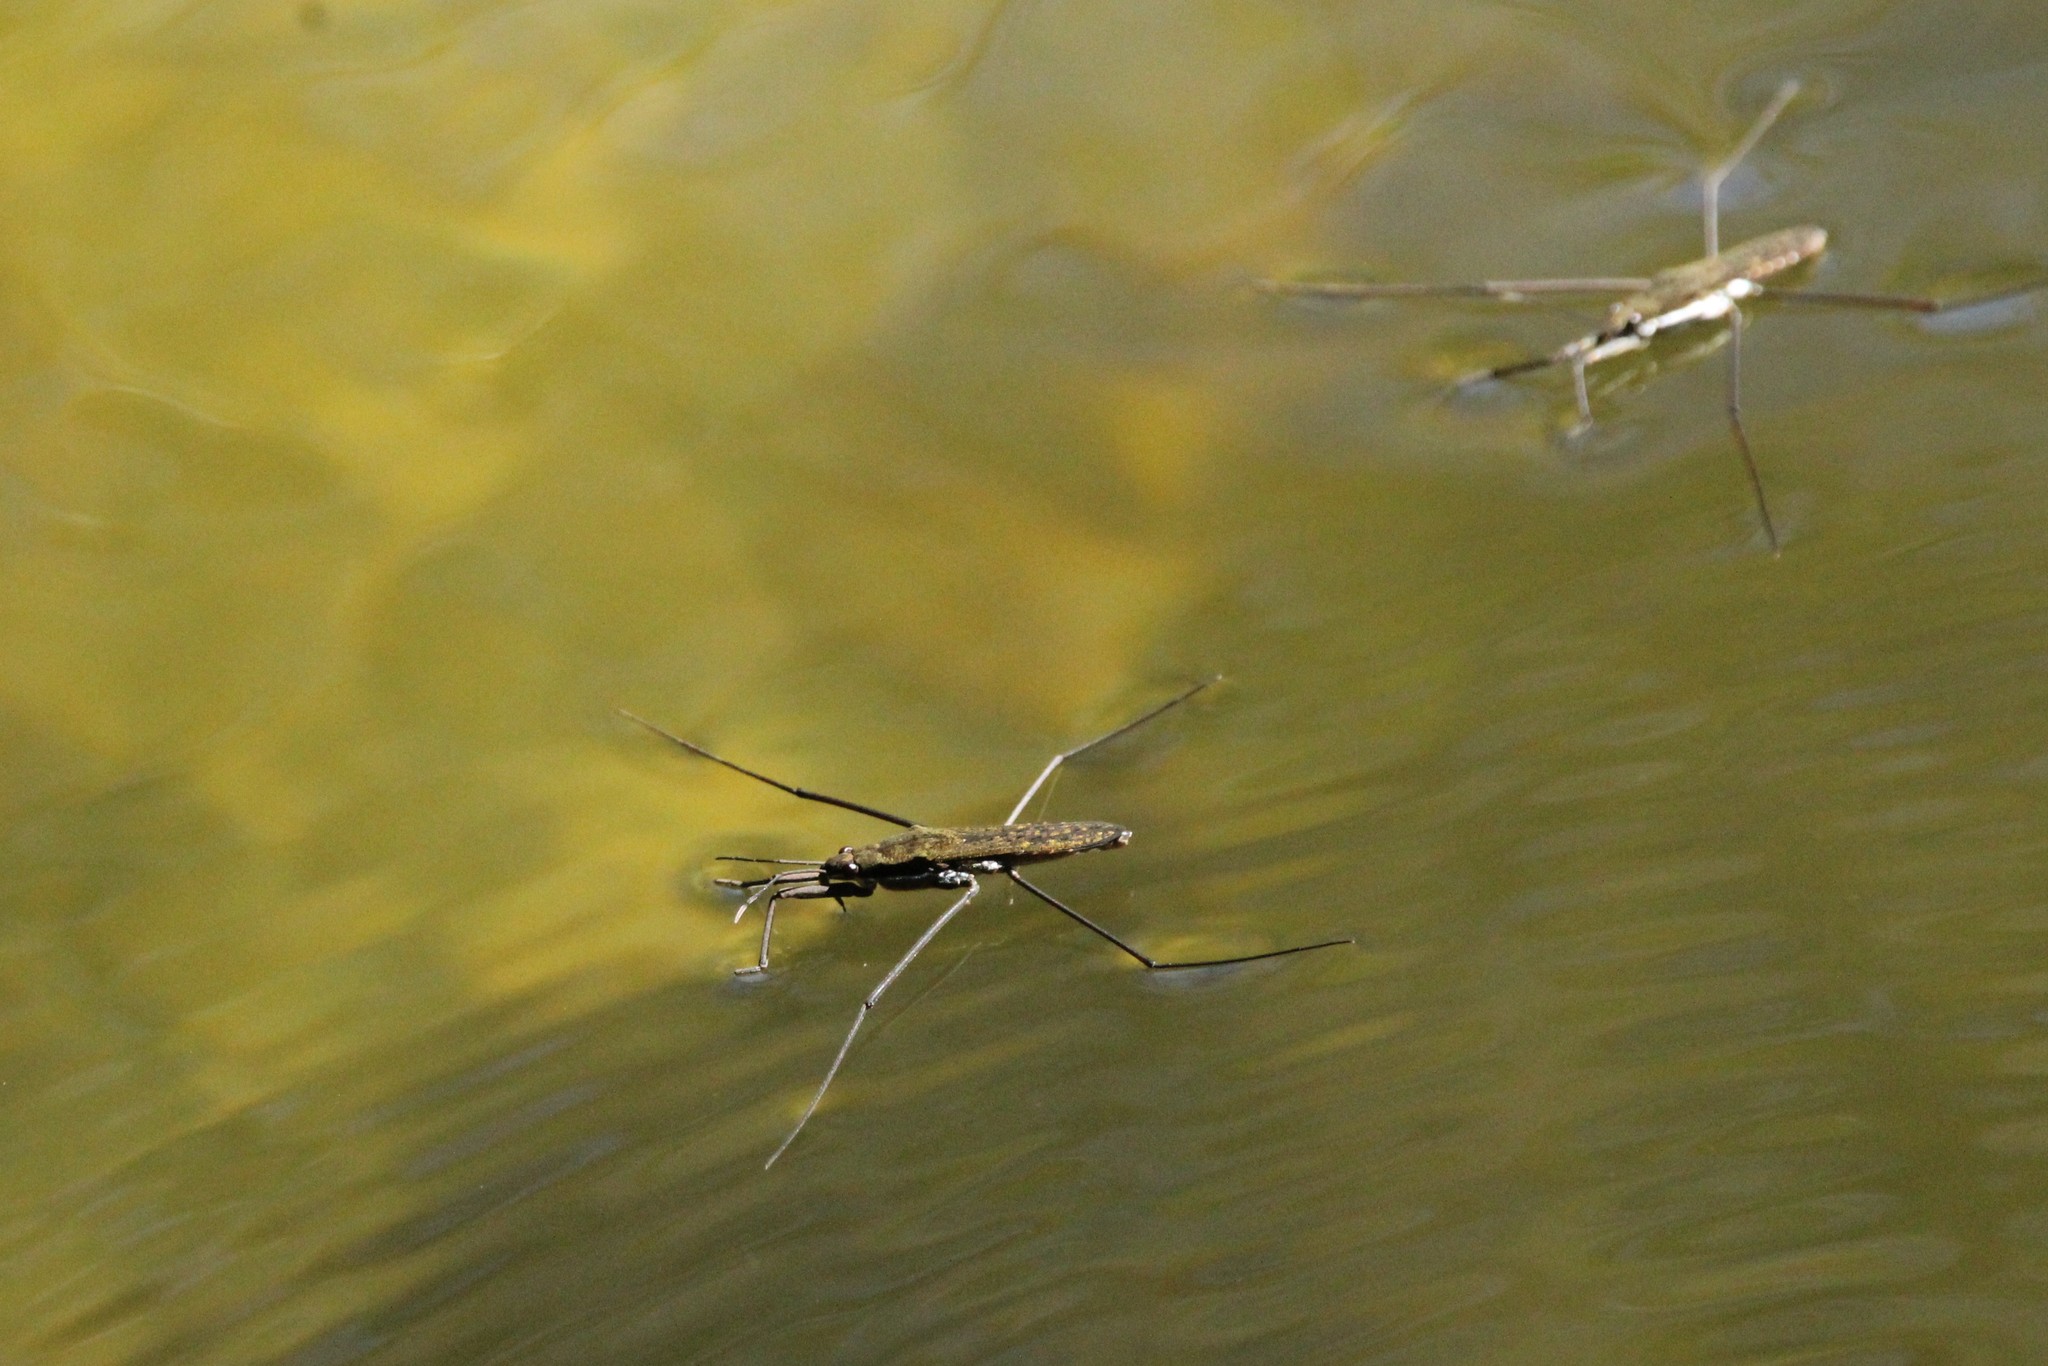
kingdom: Animalia
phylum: Arthropoda
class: Insecta
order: Hemiptera
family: Gerridae
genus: Aquarius
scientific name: Aquarius remigis
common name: Common water strider
